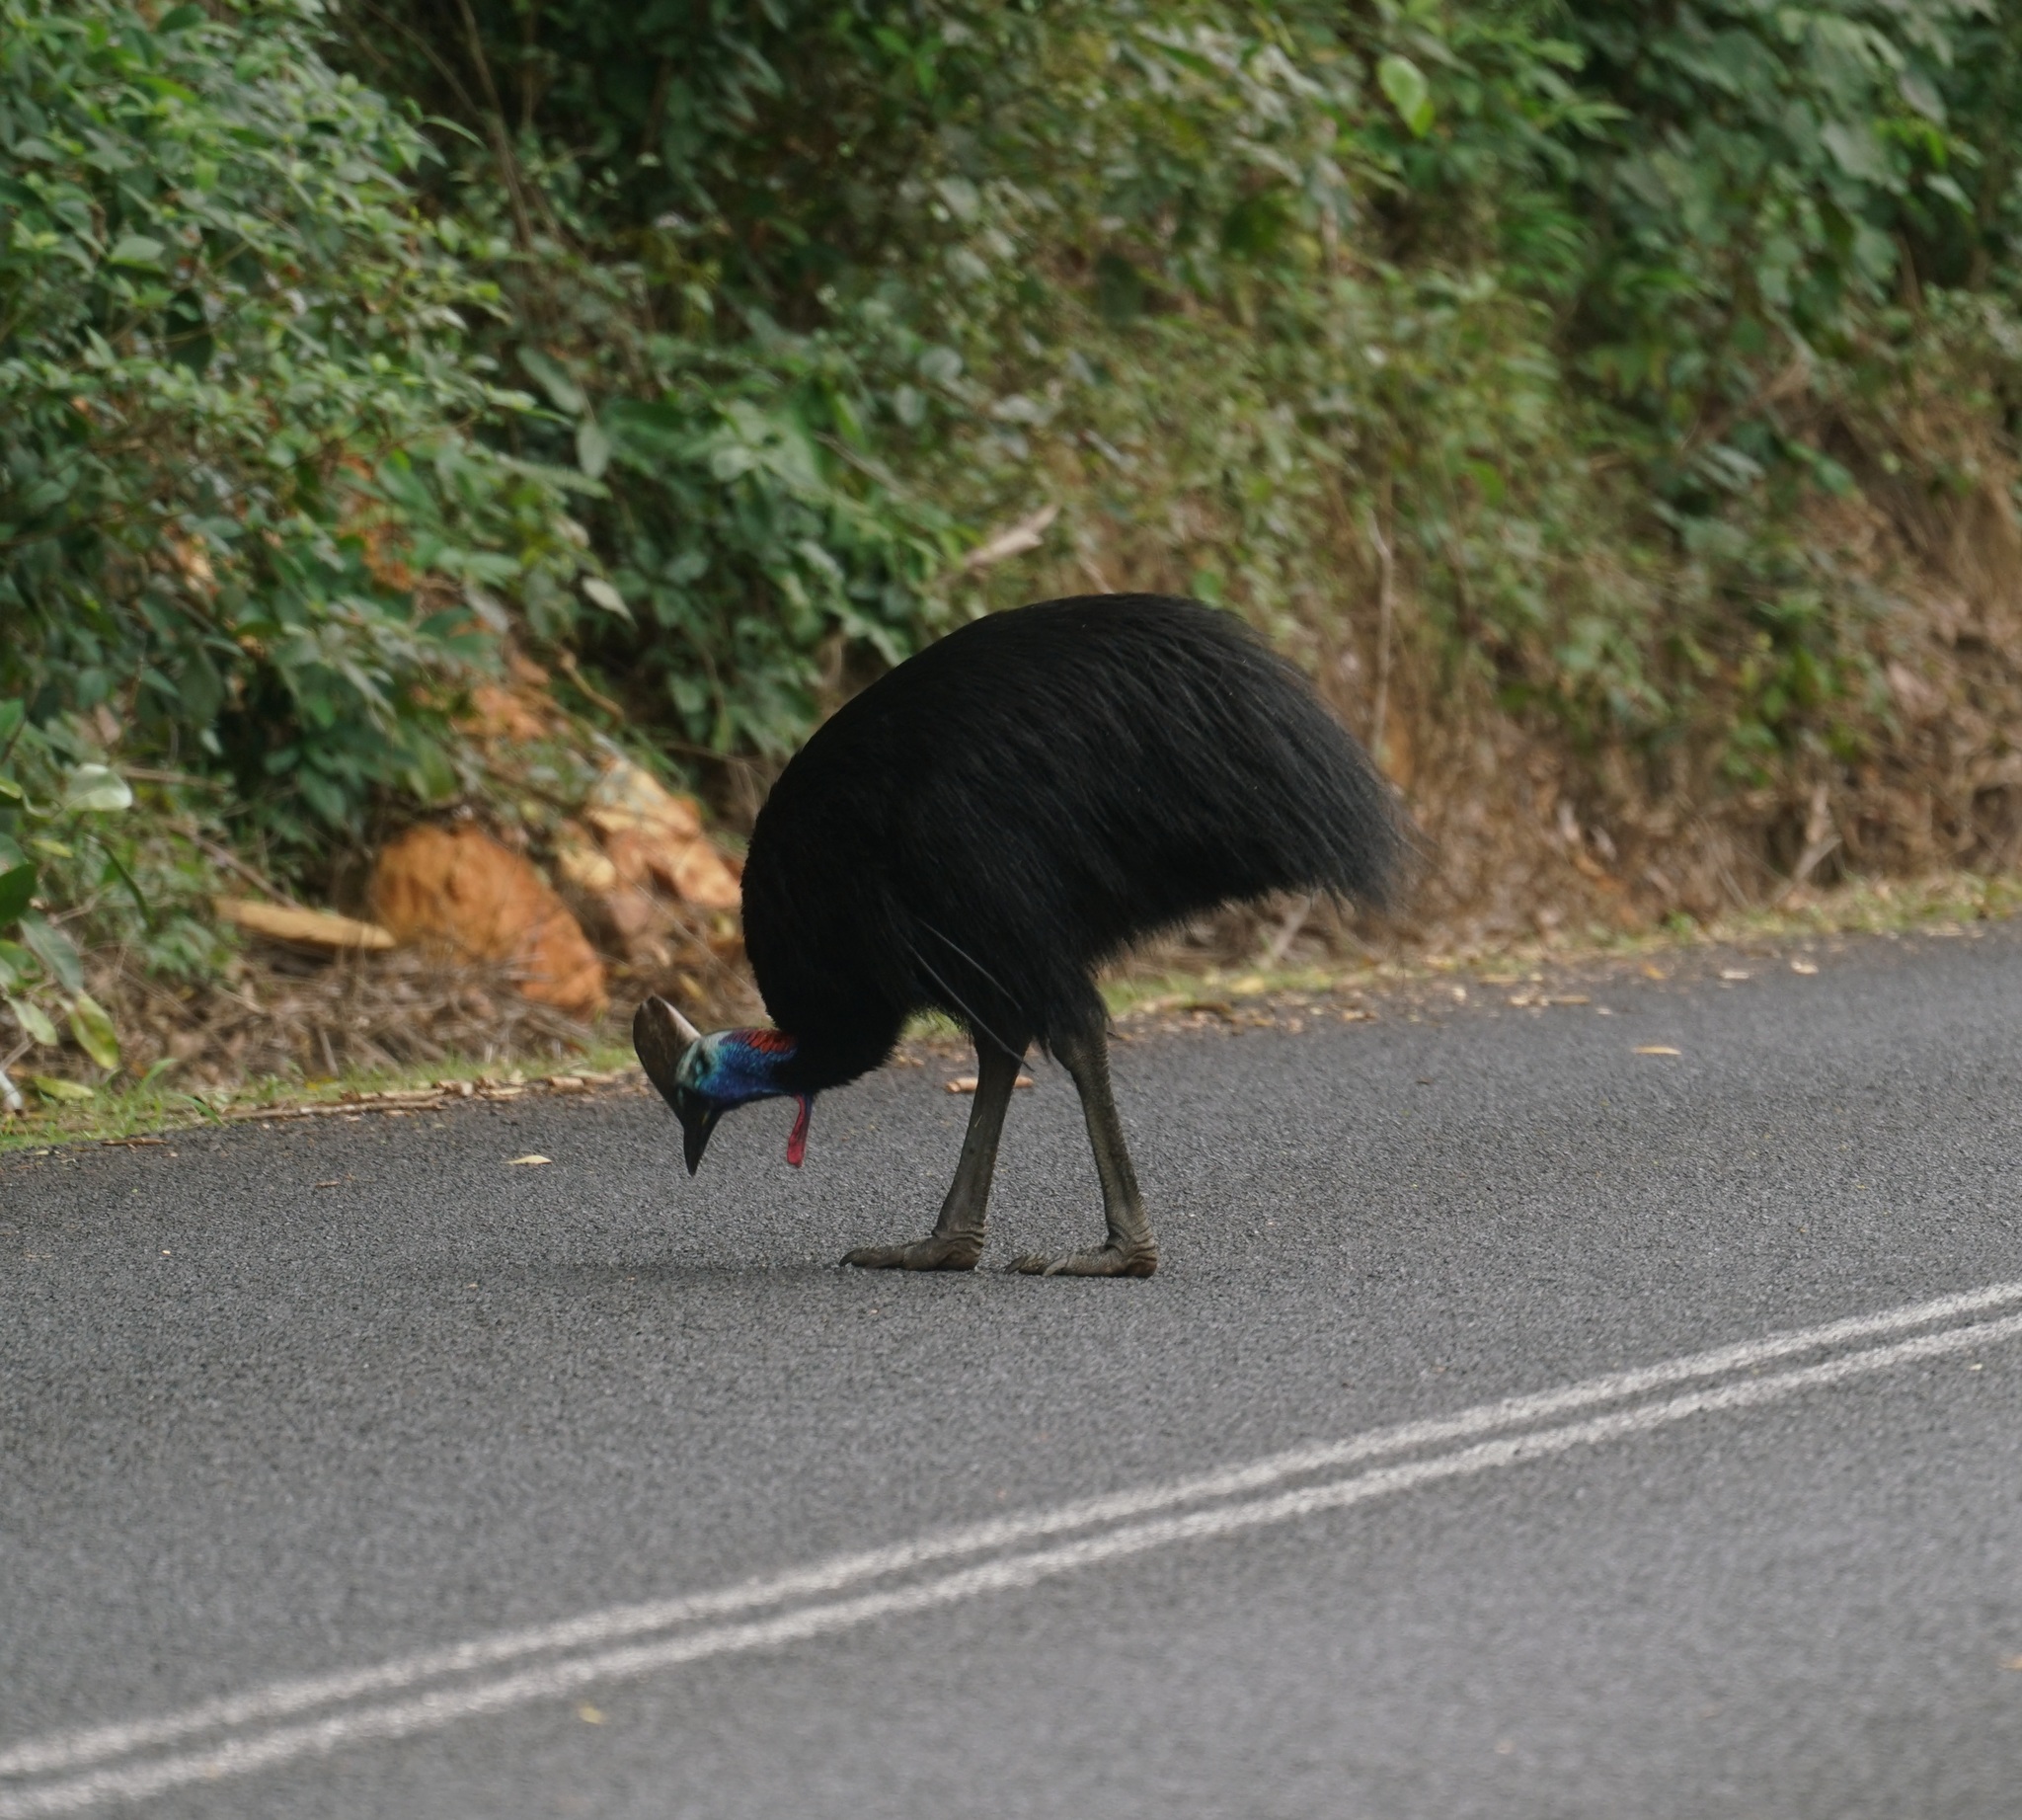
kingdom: Animalia
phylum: Chordata
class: Aves
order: Casuariiformes
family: Casuariidae
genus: Casuarius
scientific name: Casuarius casuarius
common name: Southern cassowary
